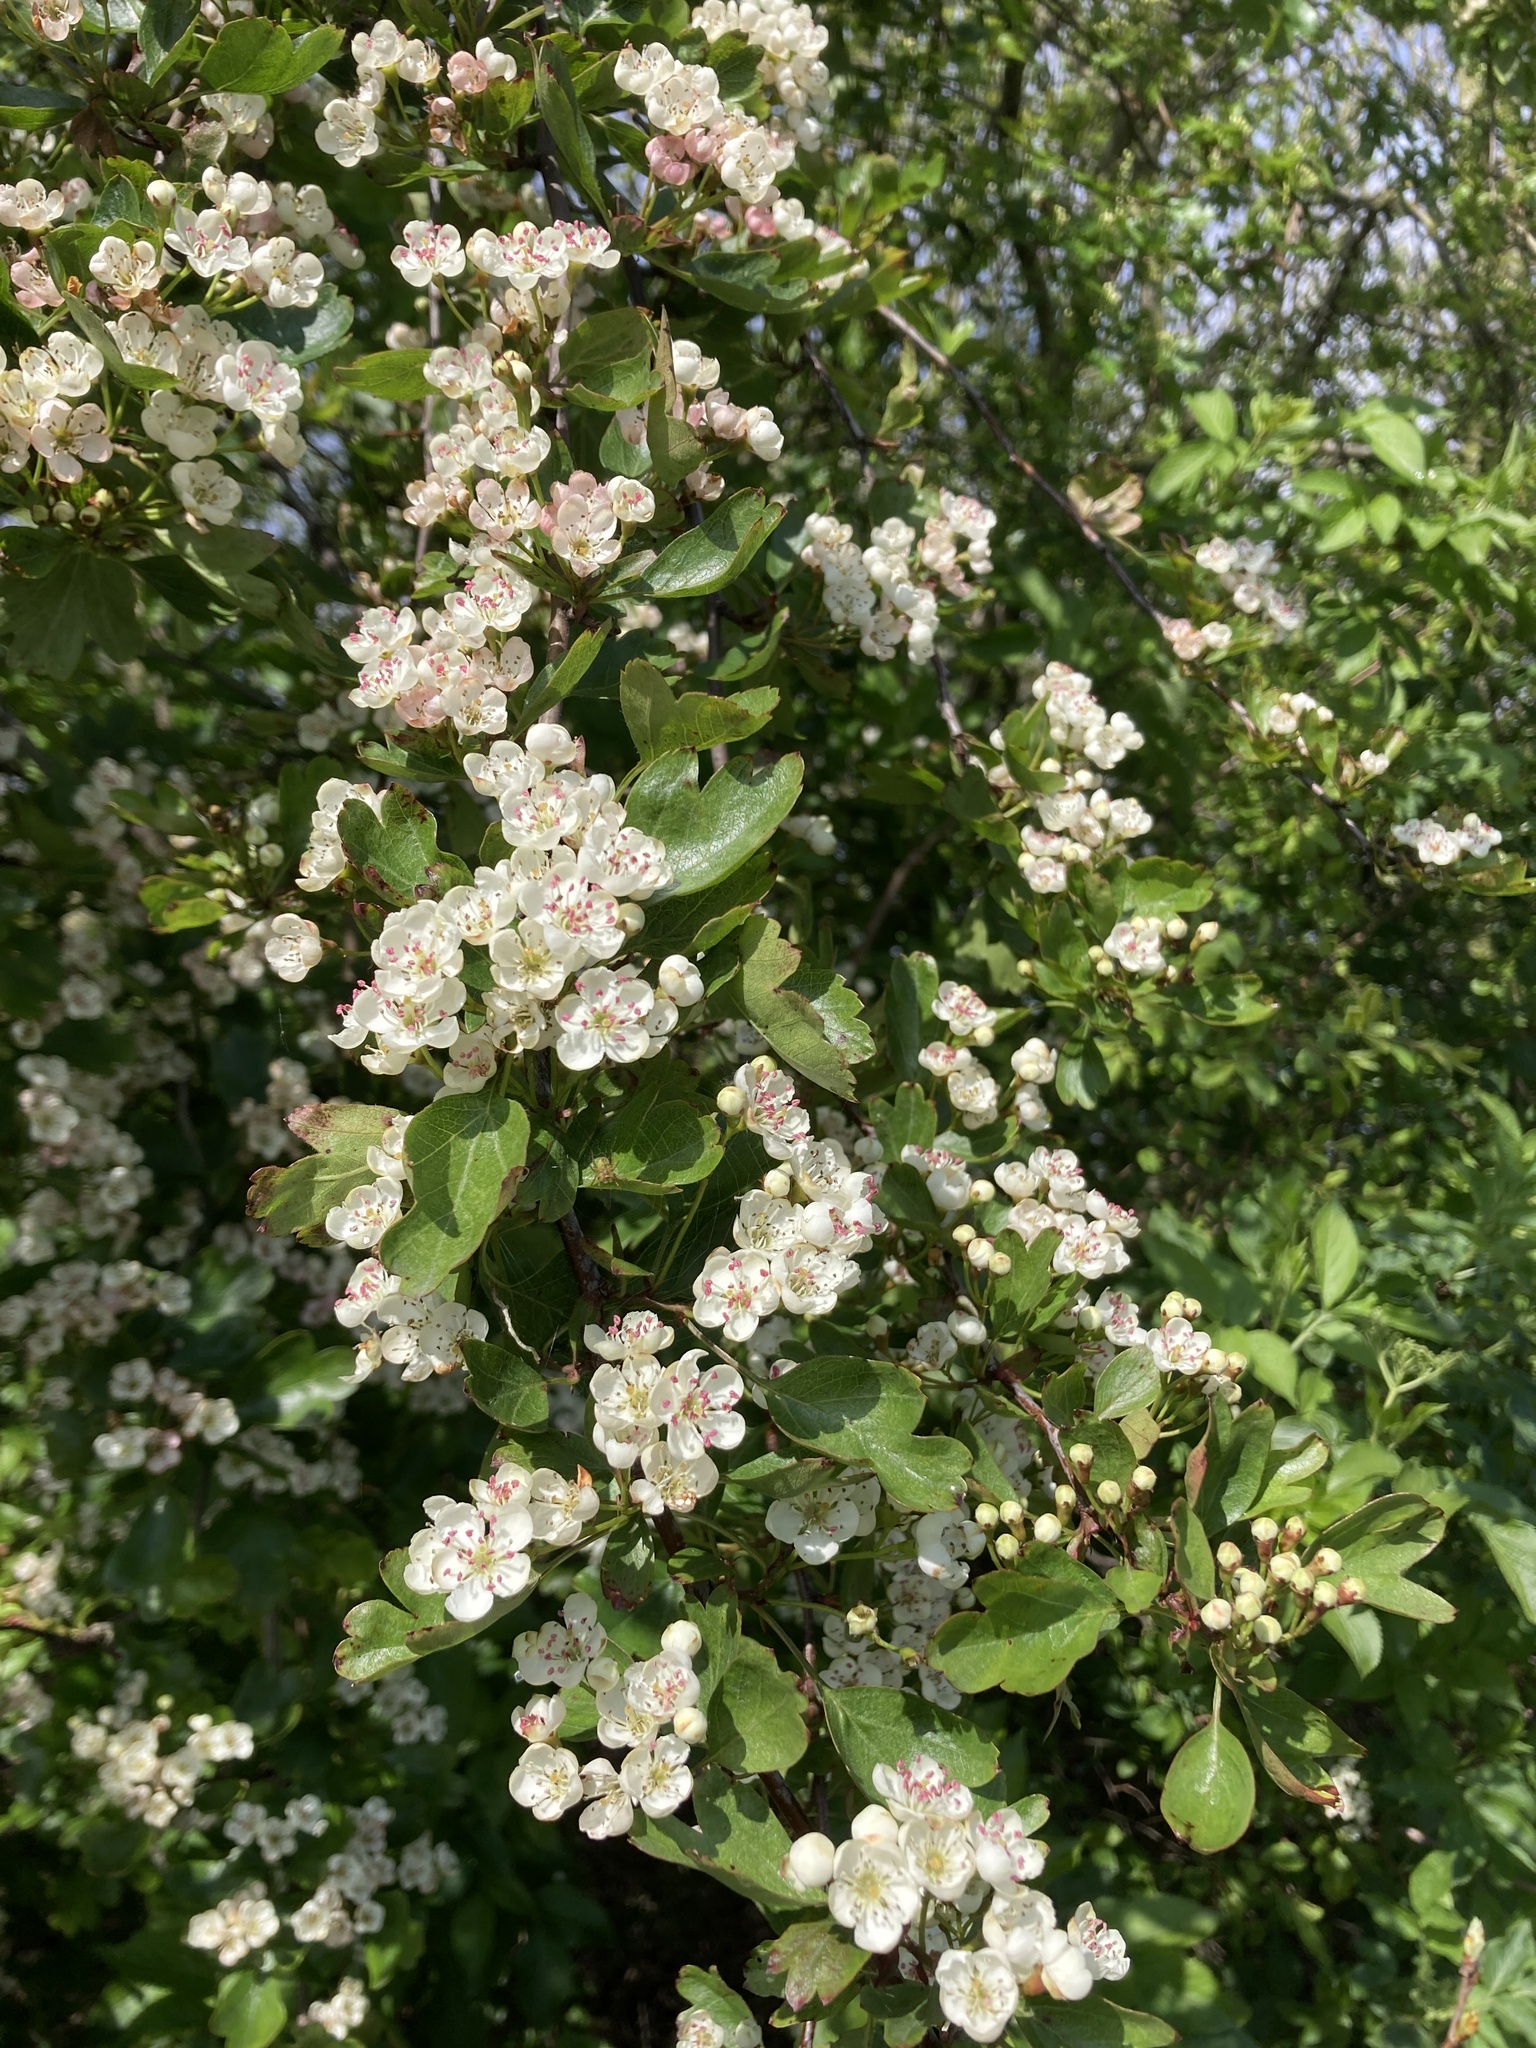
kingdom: Plantae
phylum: Tracheophyta
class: Magnoliopsida
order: Rosales
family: Rosaceae
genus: Crataegus
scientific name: Crataegus monogyna
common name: Hawthorn
